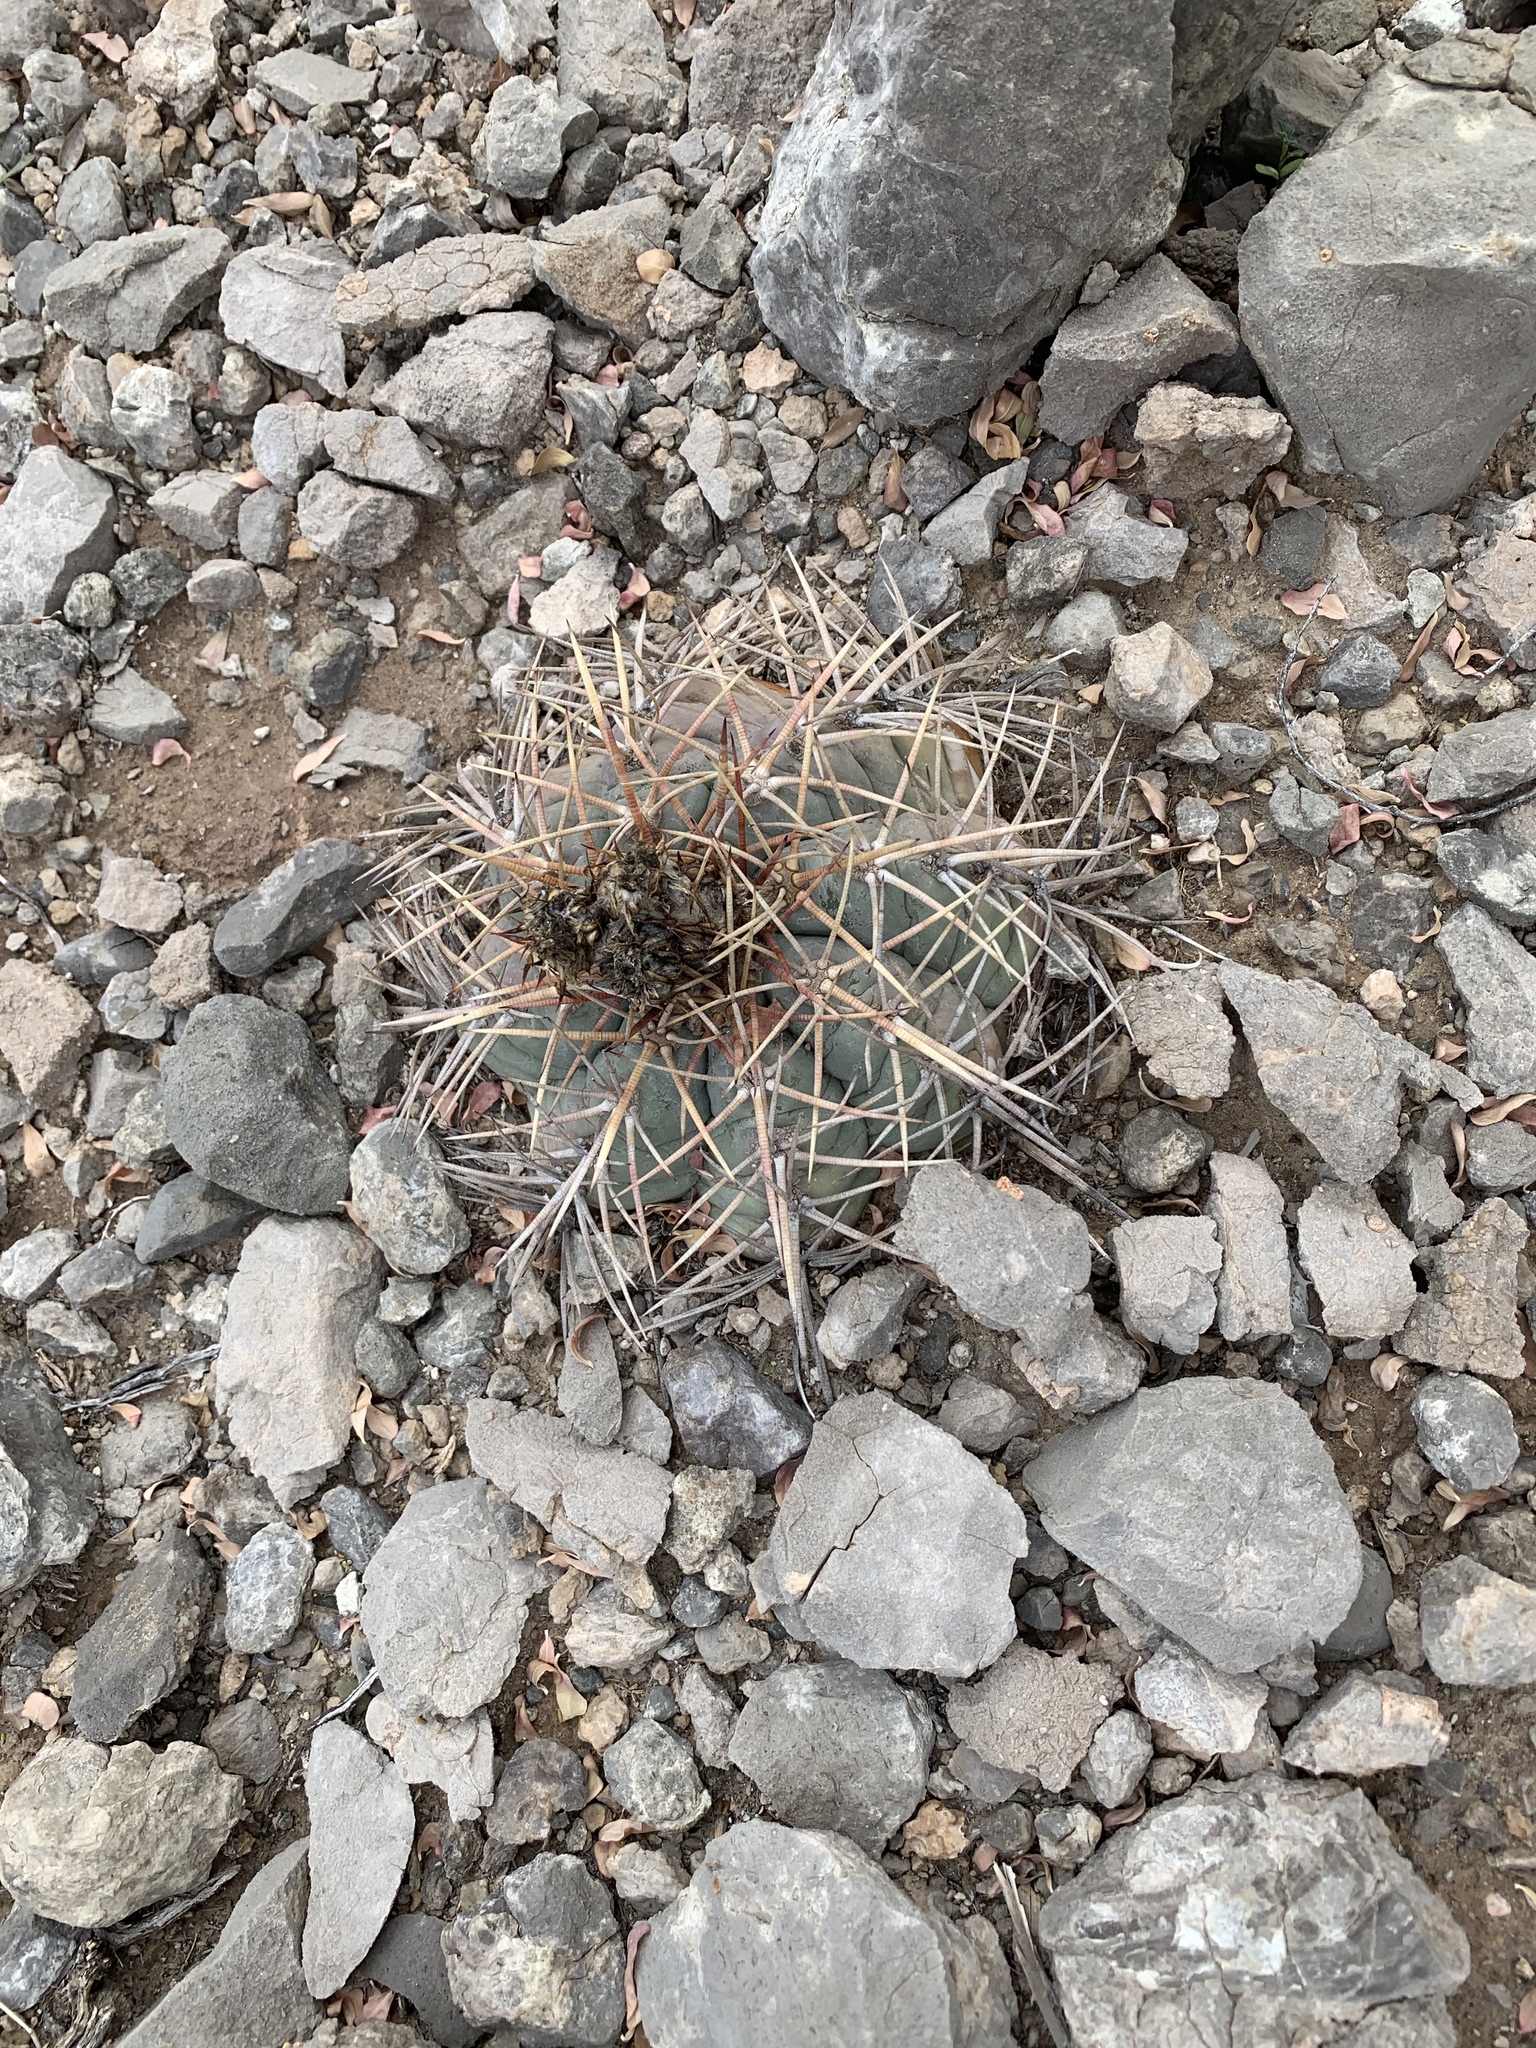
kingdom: Plantae
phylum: Tracheophyta
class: Magnoliopsida
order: Caryophyllales
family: Cactaceae
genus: Echinocactus
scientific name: Echinocactus horizonthalonius
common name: Devilshead
